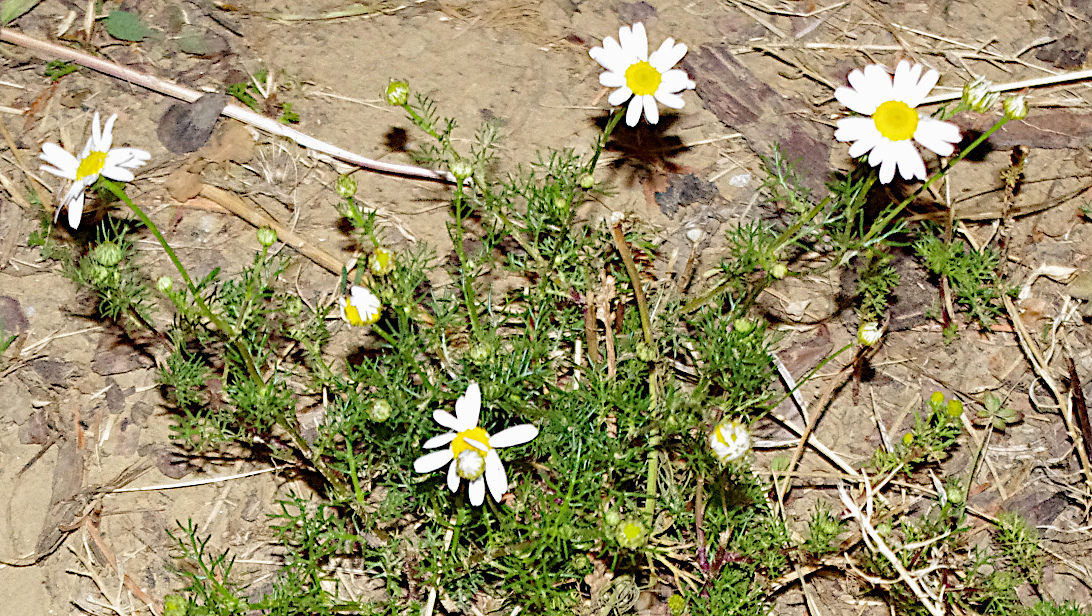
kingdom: Plantae
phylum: Tracheophyta
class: Magnoliopsida
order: Asterales
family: Asteraceae
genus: Tripleurospermum
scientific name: Tripleurospermum inodorum
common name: Scentless mayweed
